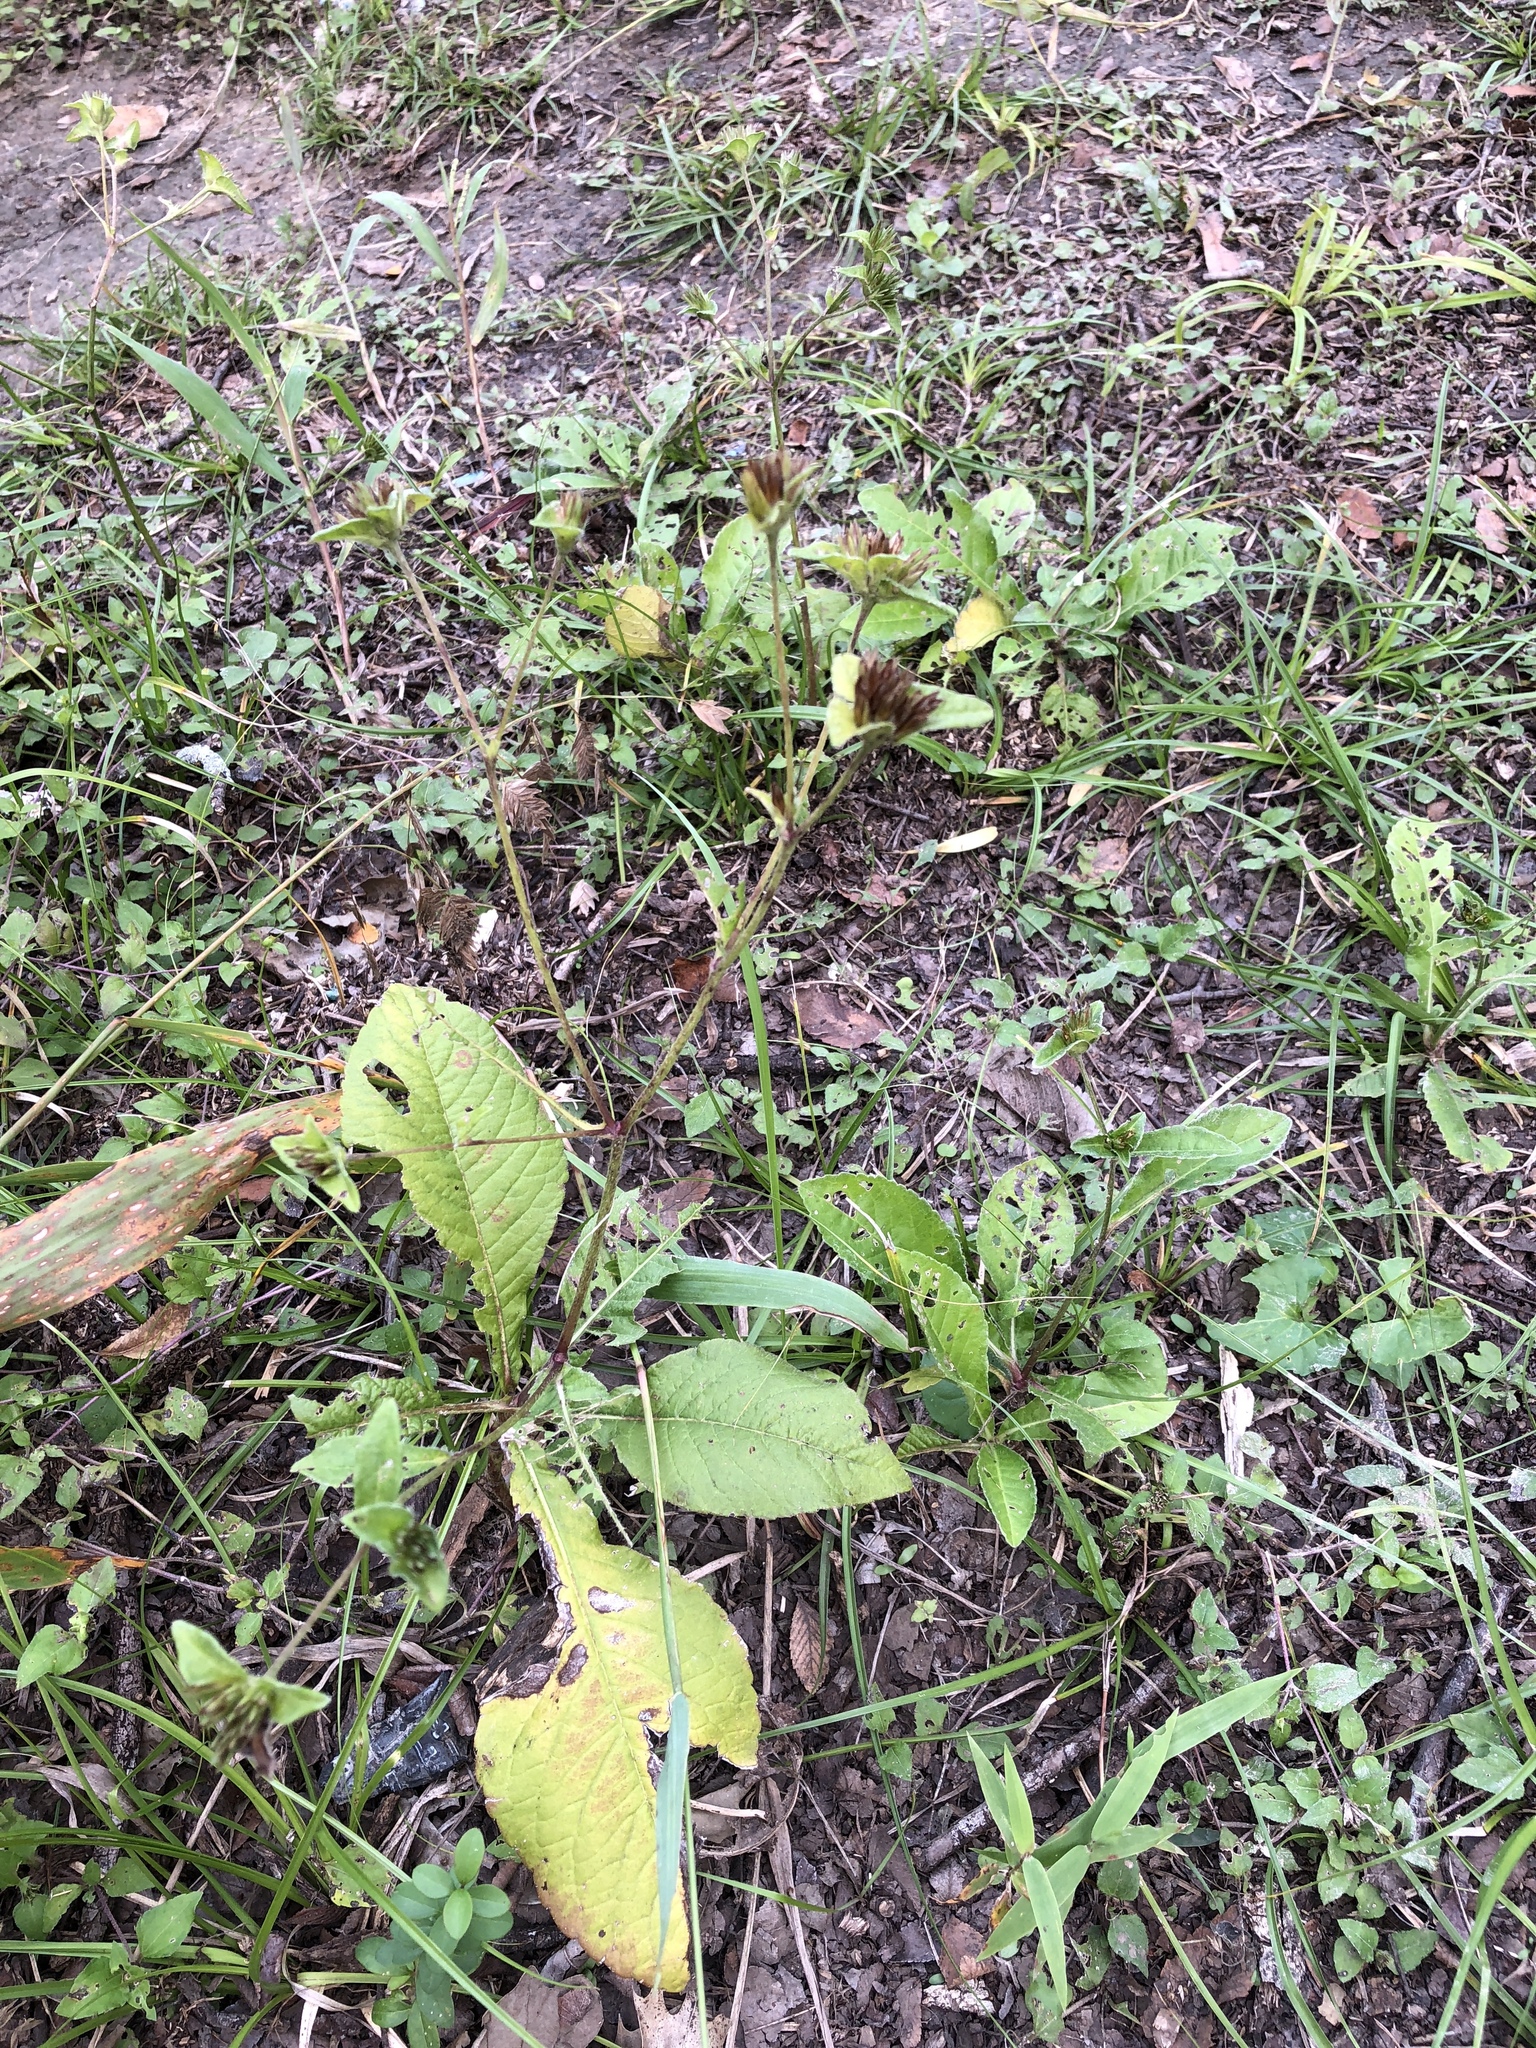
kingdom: Plantae
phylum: Tracheophyta
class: Magnoliopsida
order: Asterales
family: Asteraceae
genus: Elephantopus
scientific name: Elephantopus carolinianus
